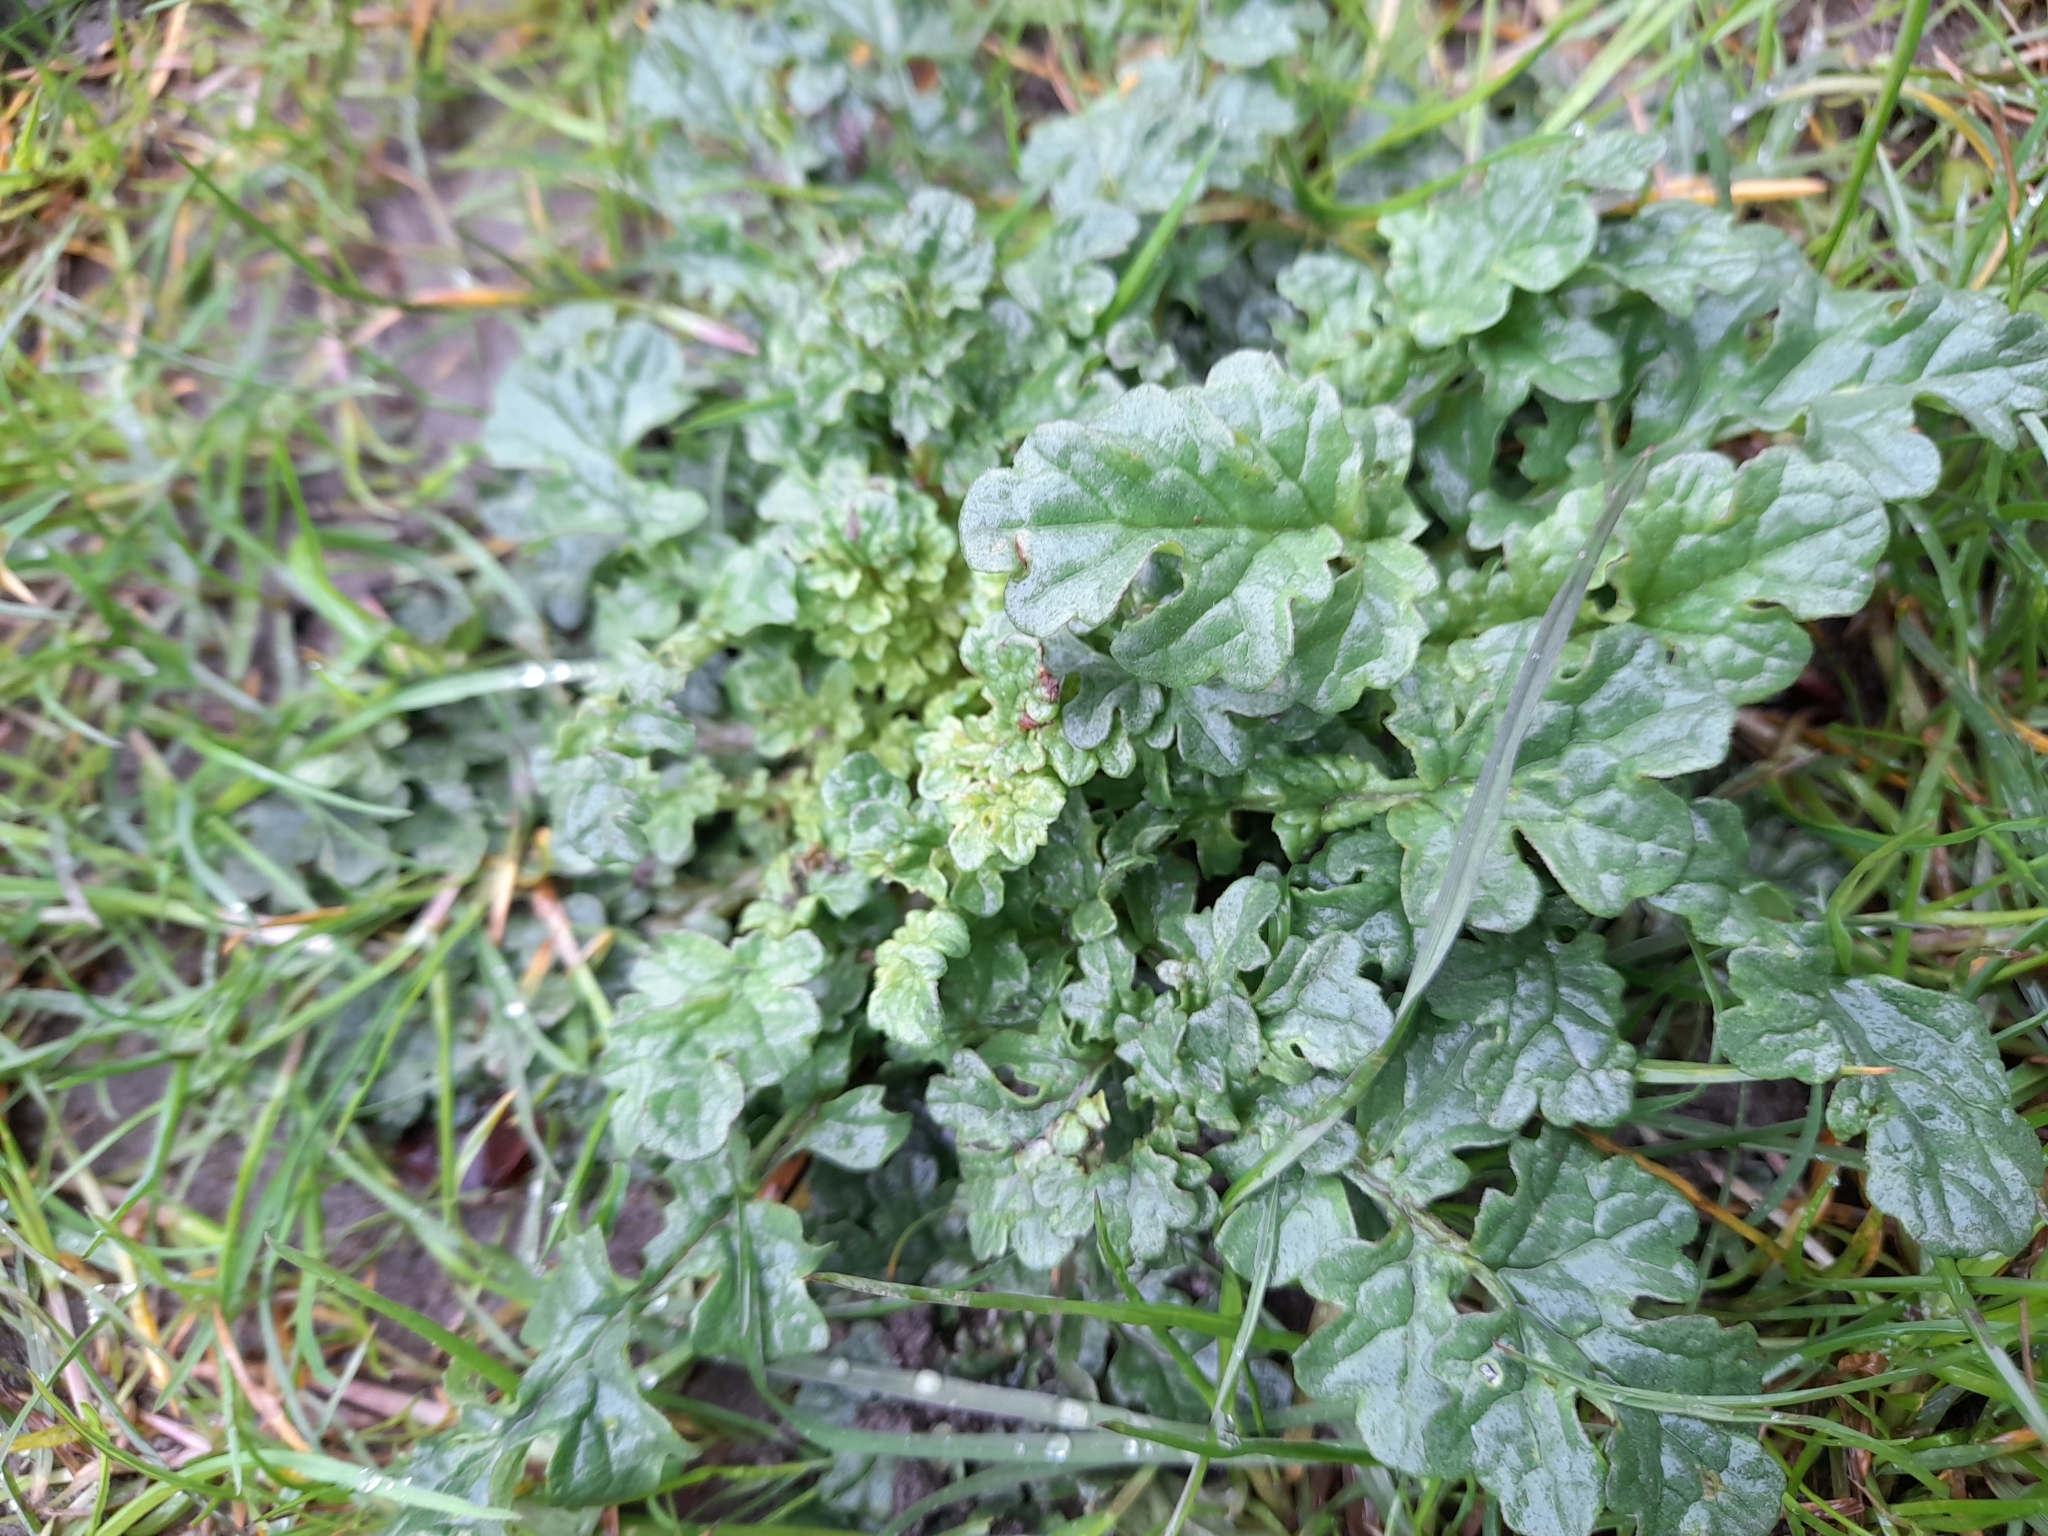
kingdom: Plantae
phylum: Tracheophyta
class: Magnoliopsida
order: Asterales
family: Asteraceae
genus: Jacobaea
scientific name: Jacobaea vulgaris
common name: Stinking willie
